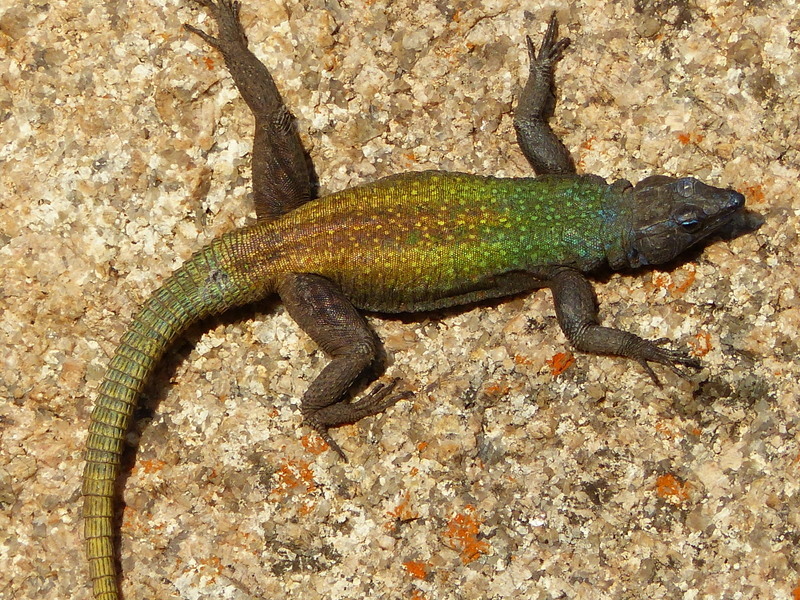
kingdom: Animalia
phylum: Chordata
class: Squamata
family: Cordylidae
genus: Platysaurus
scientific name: Platysaurus intermedius
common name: Common flat lizard
